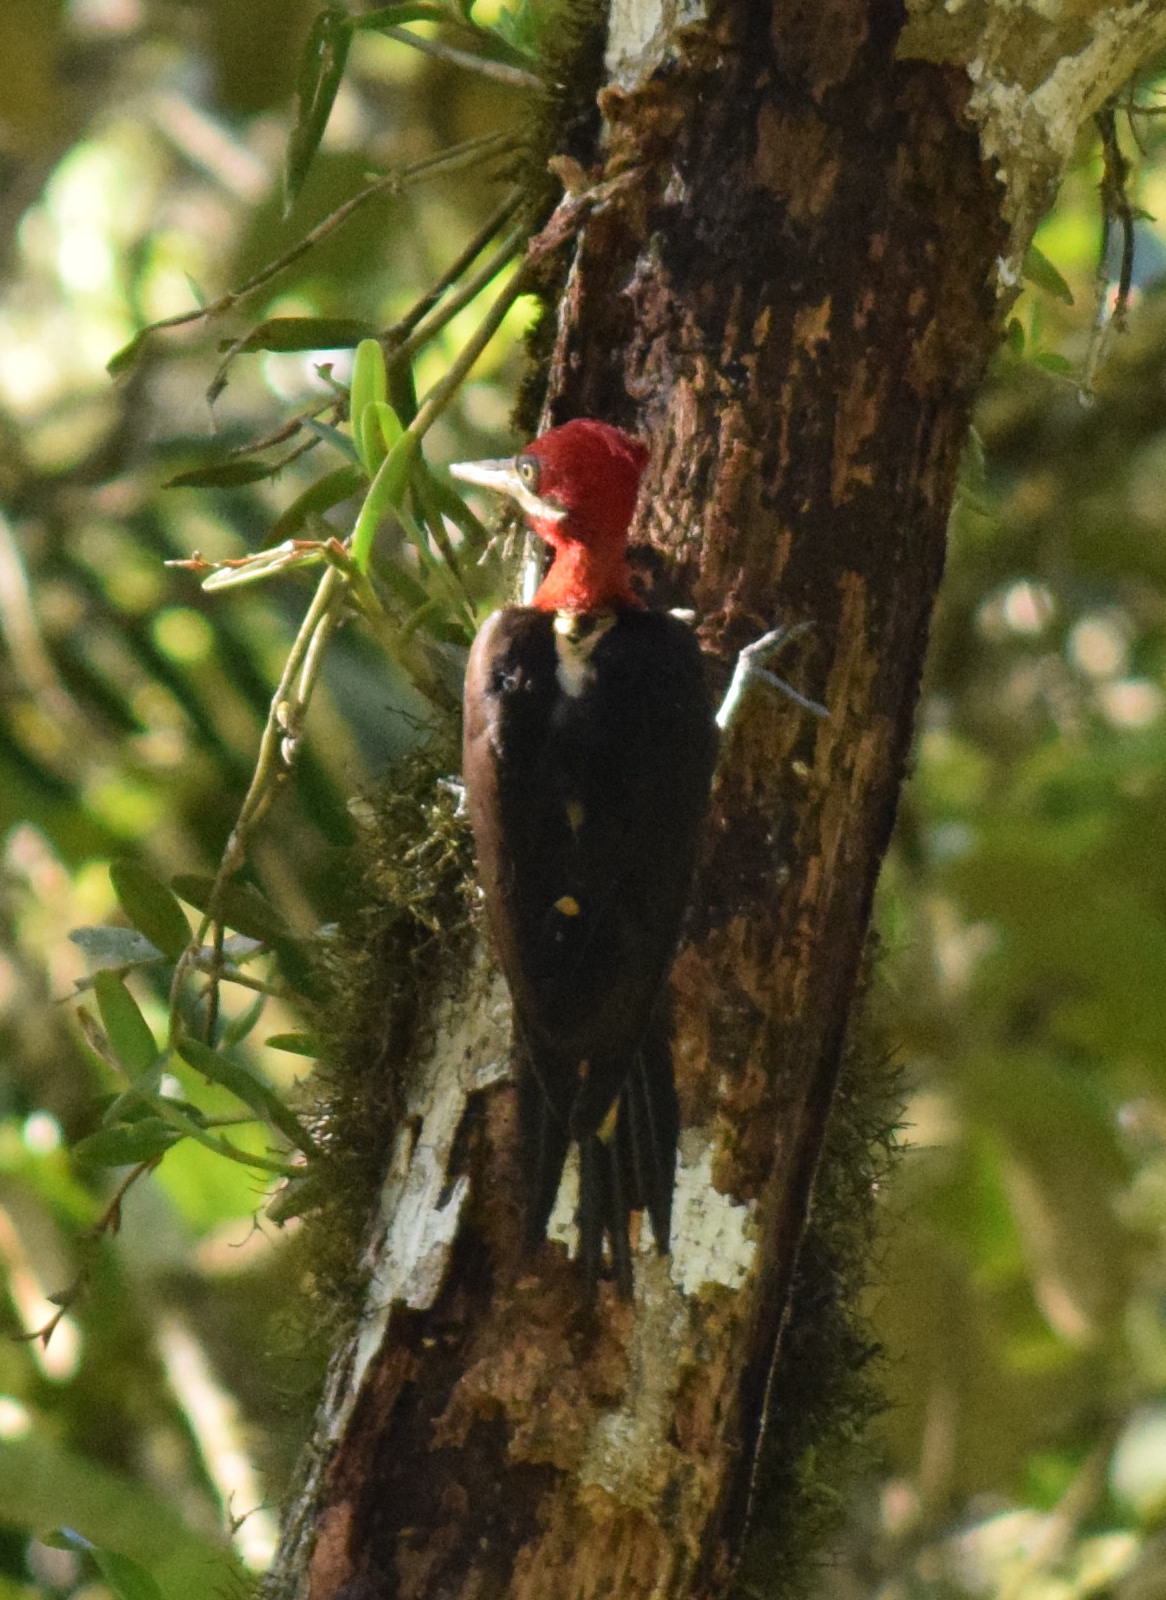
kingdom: Animalia
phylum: Chordata
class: Aves
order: Piciformes
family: Picidae
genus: Campephilus
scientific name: Campephilus robustus
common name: Robust woodpecker
